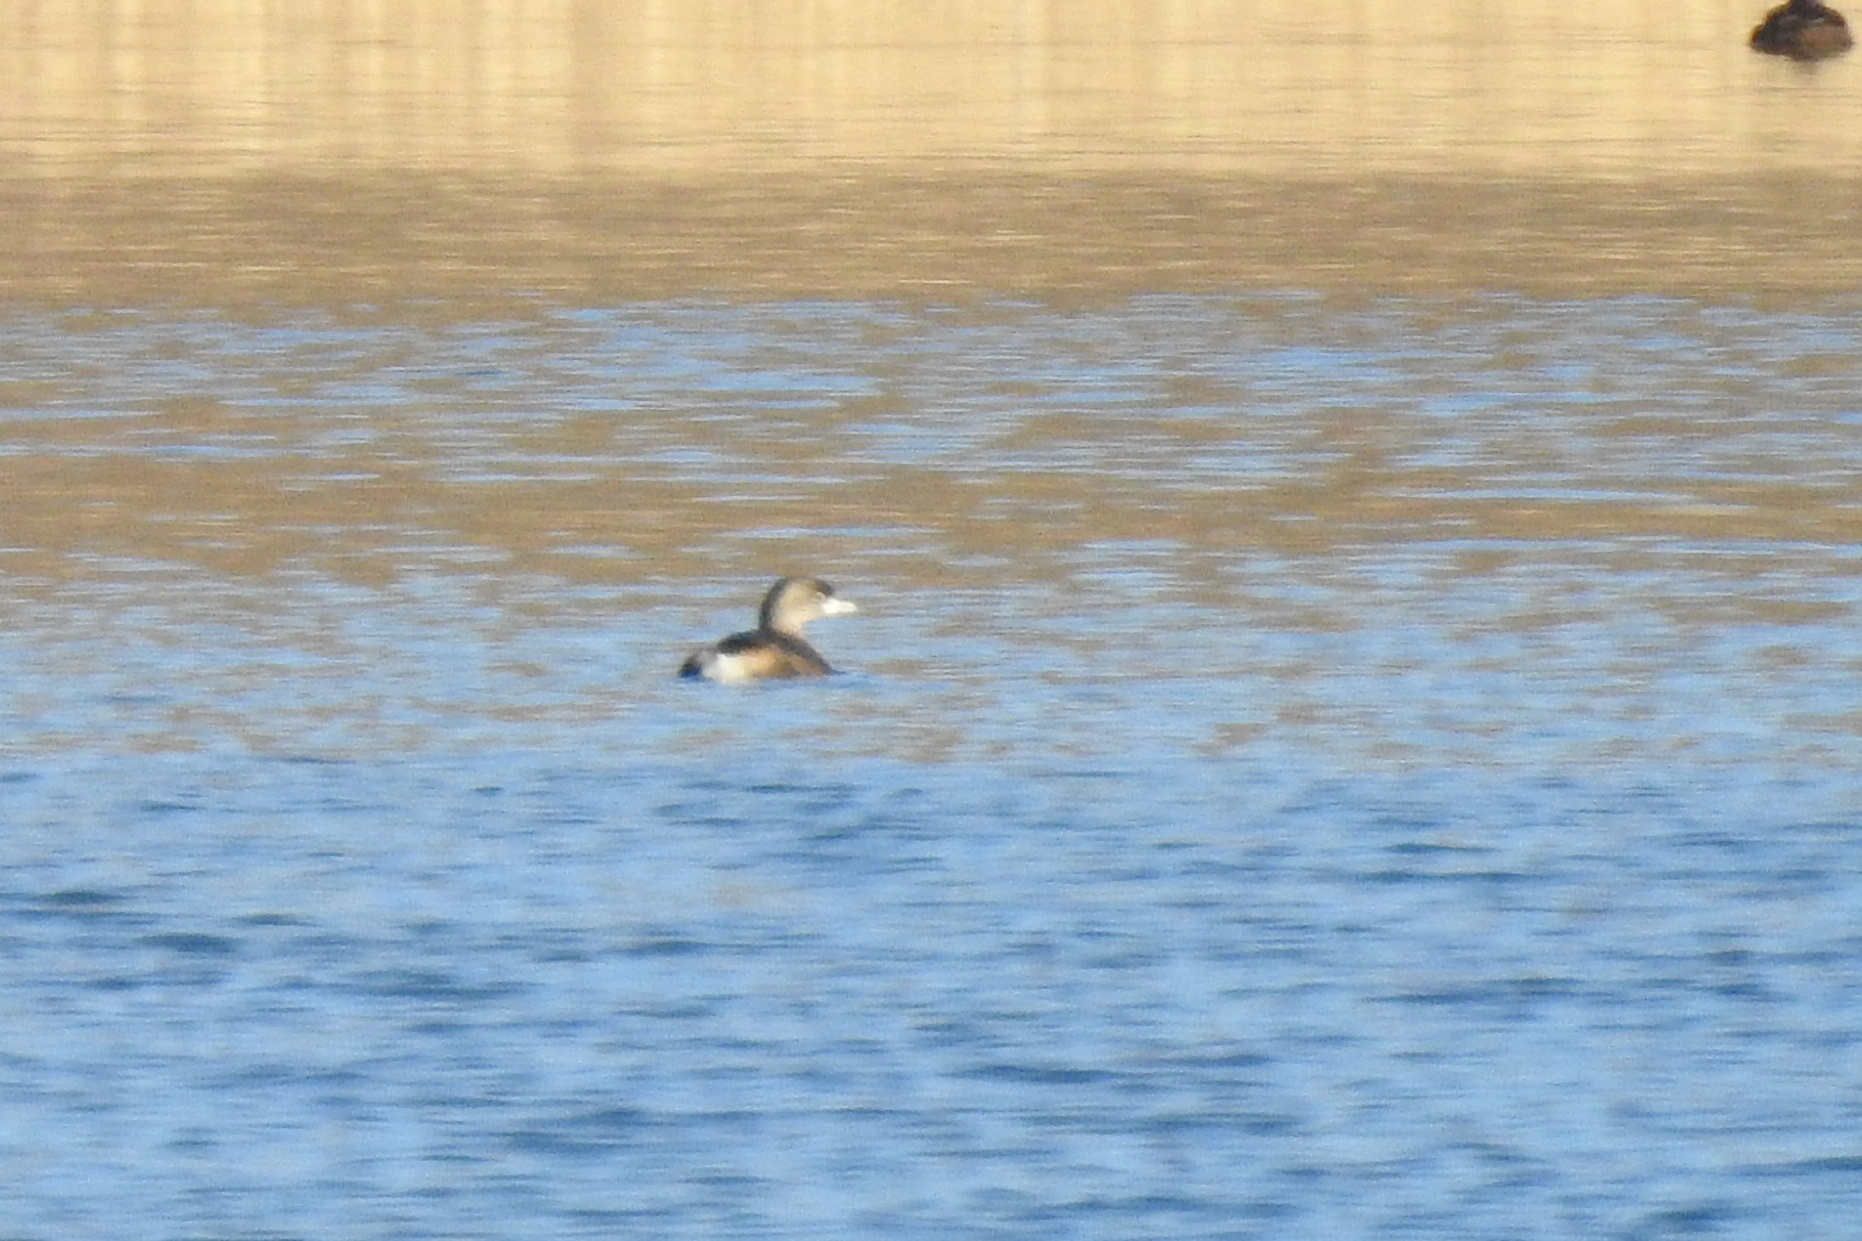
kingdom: Animalia
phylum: Chordata
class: Aves
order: Podicipediformes
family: Podicipedidae
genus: Podilymbus
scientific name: Podilymbus podiceps
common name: Pied-billed grebe
